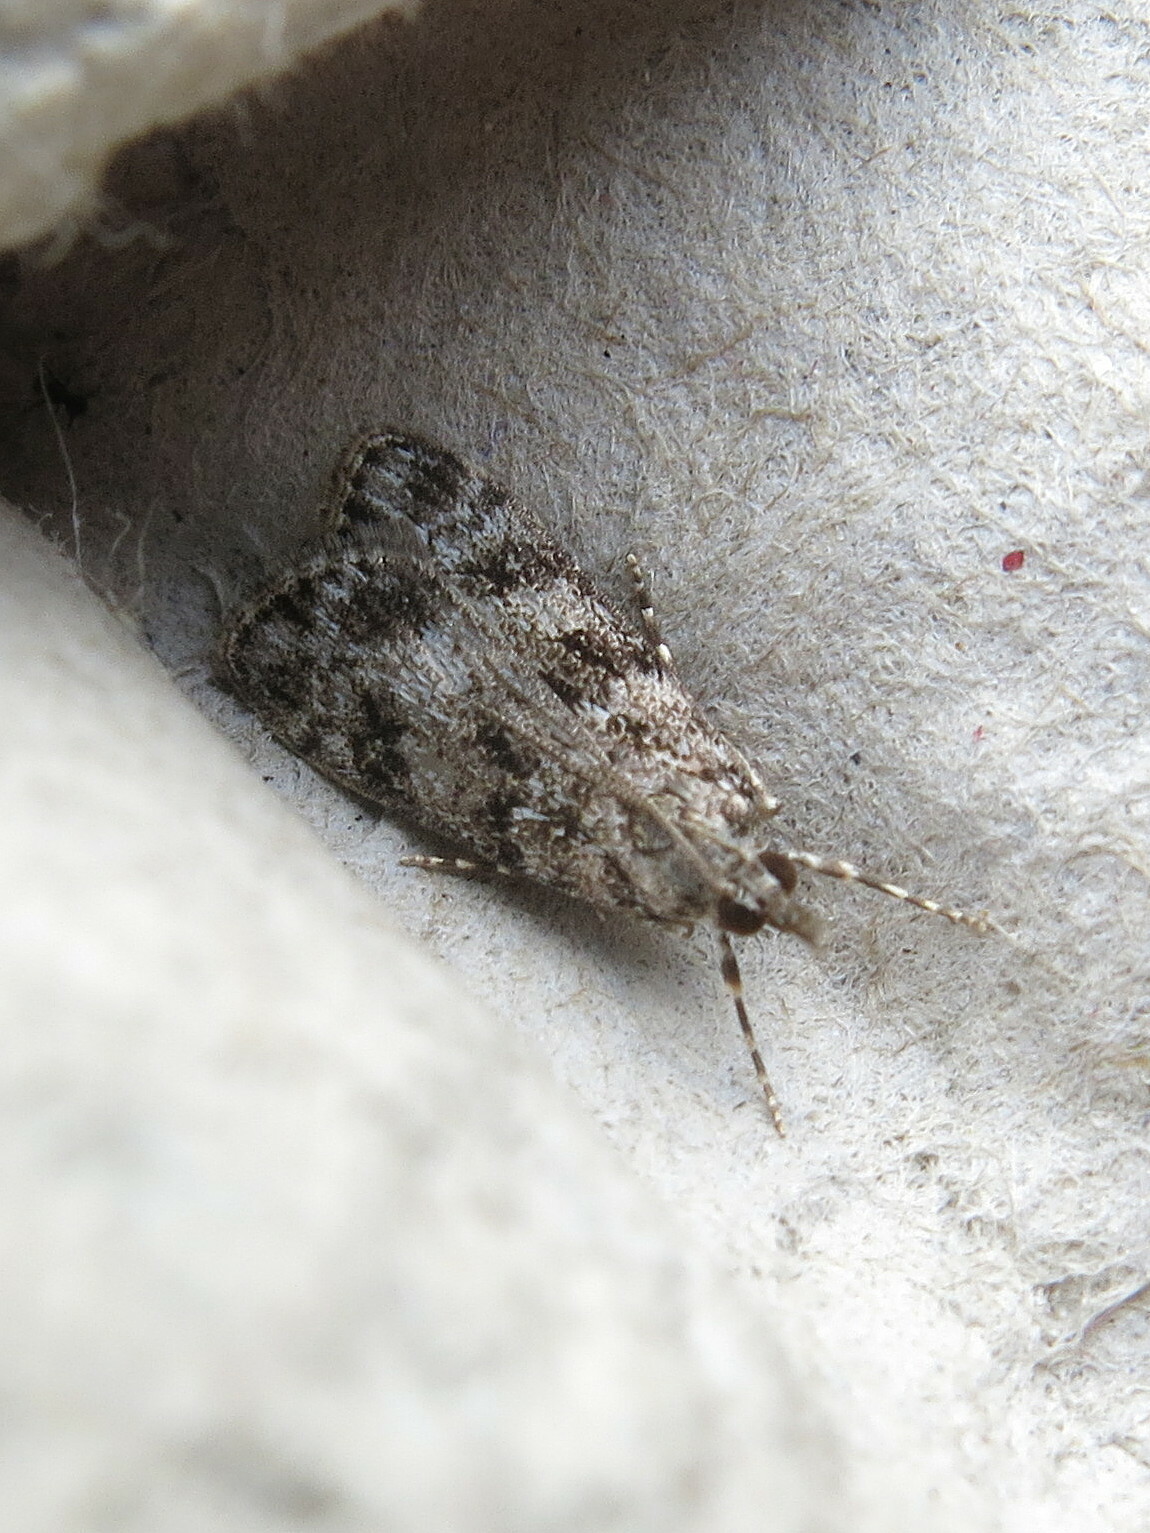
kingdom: Animalia
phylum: Arthropoda
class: Insecta
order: Lepidoptera
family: Crambidae
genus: Eudonia
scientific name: Eudonia mercurella
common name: Small grey
